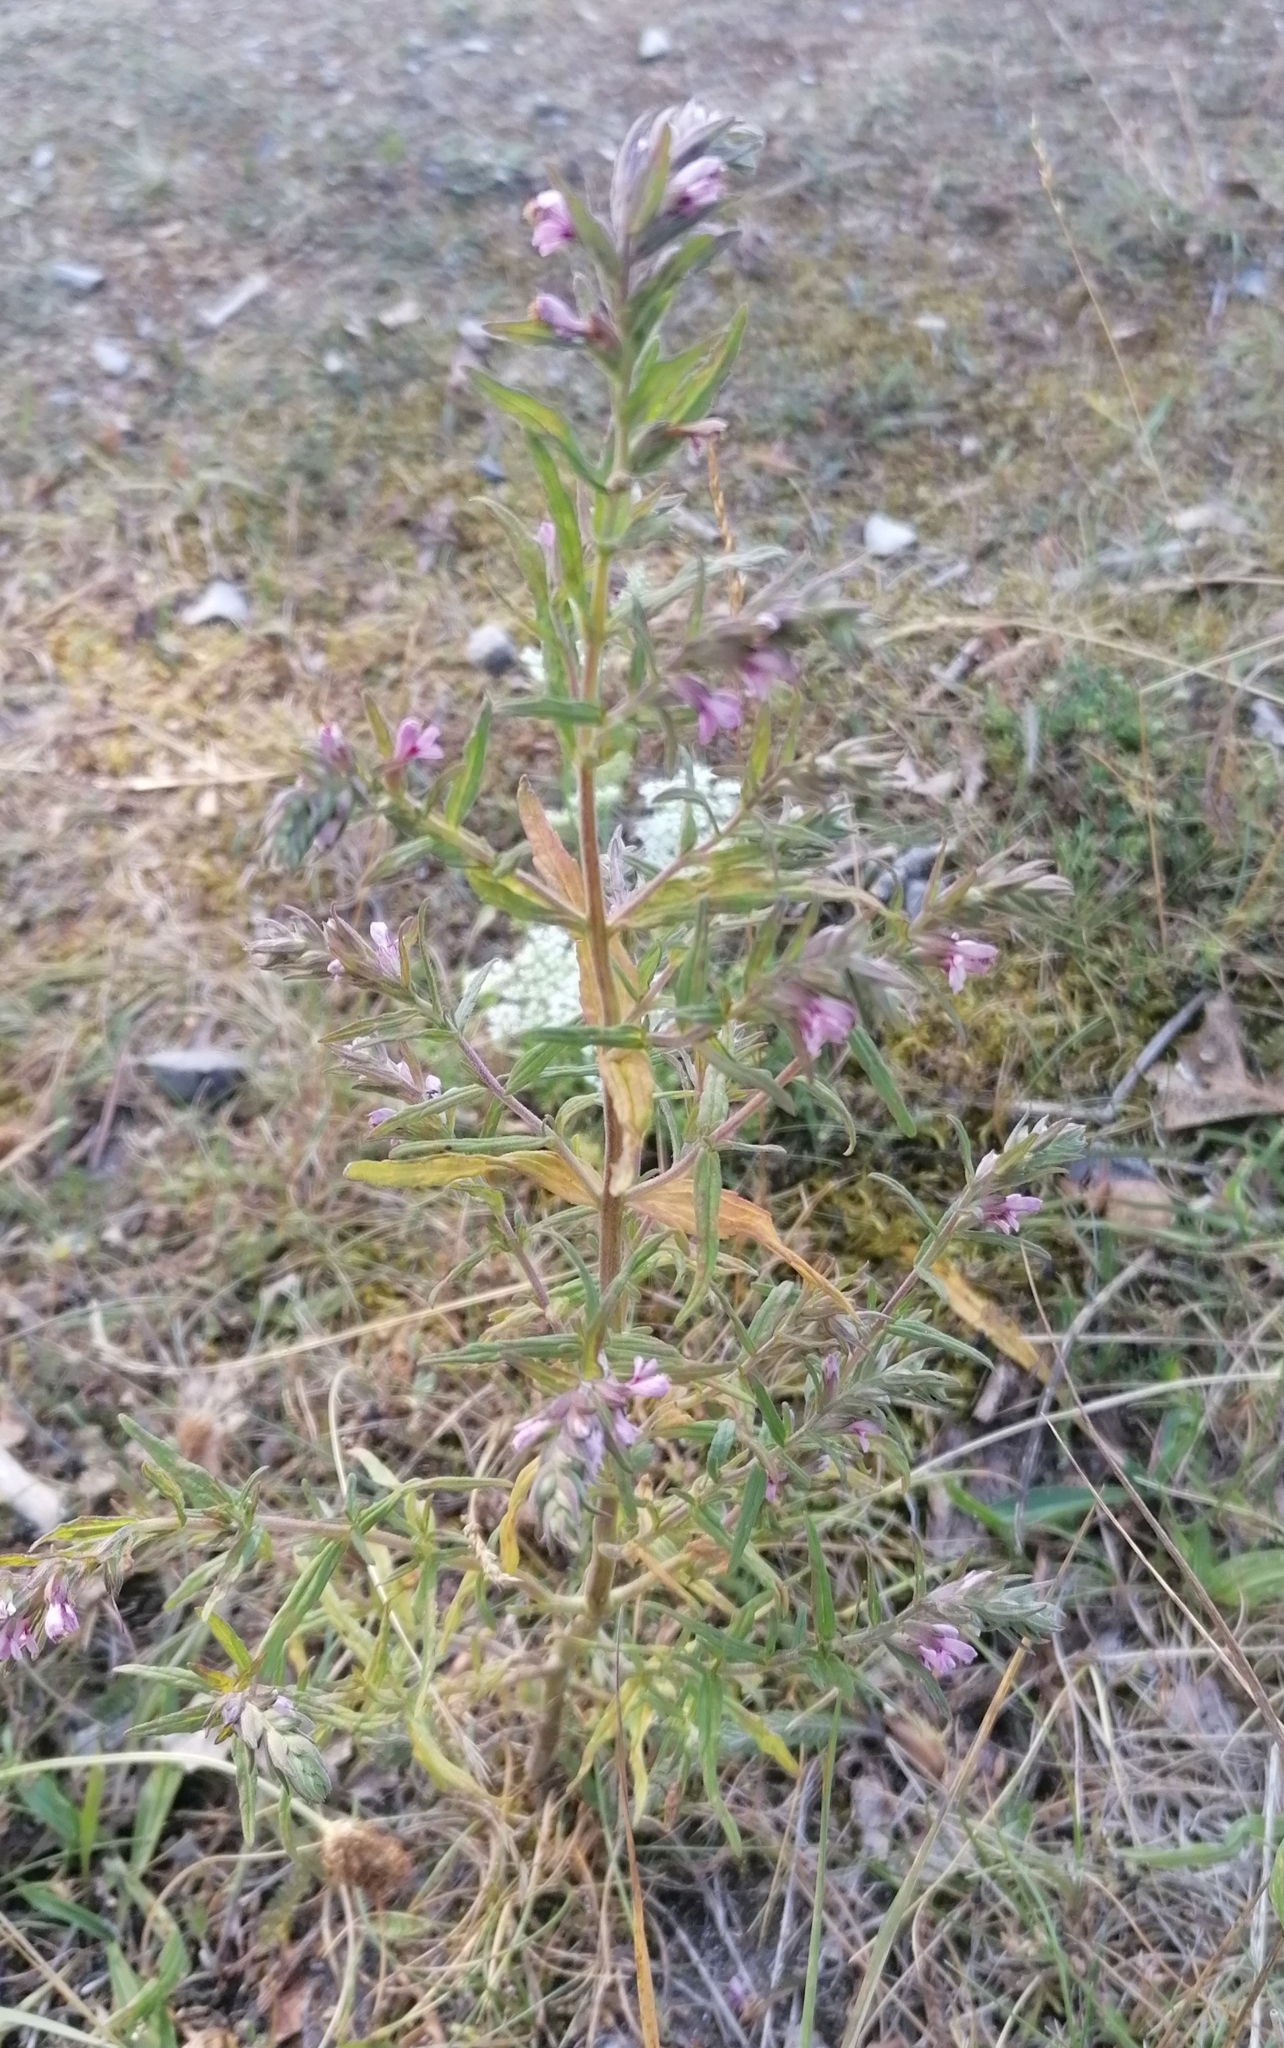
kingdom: Plantae
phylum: Tracheophyta
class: Magnoliopsida
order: Lamiales
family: Orobanchaceae
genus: Odontites
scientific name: Odontites vulgaris
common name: Broomrape
